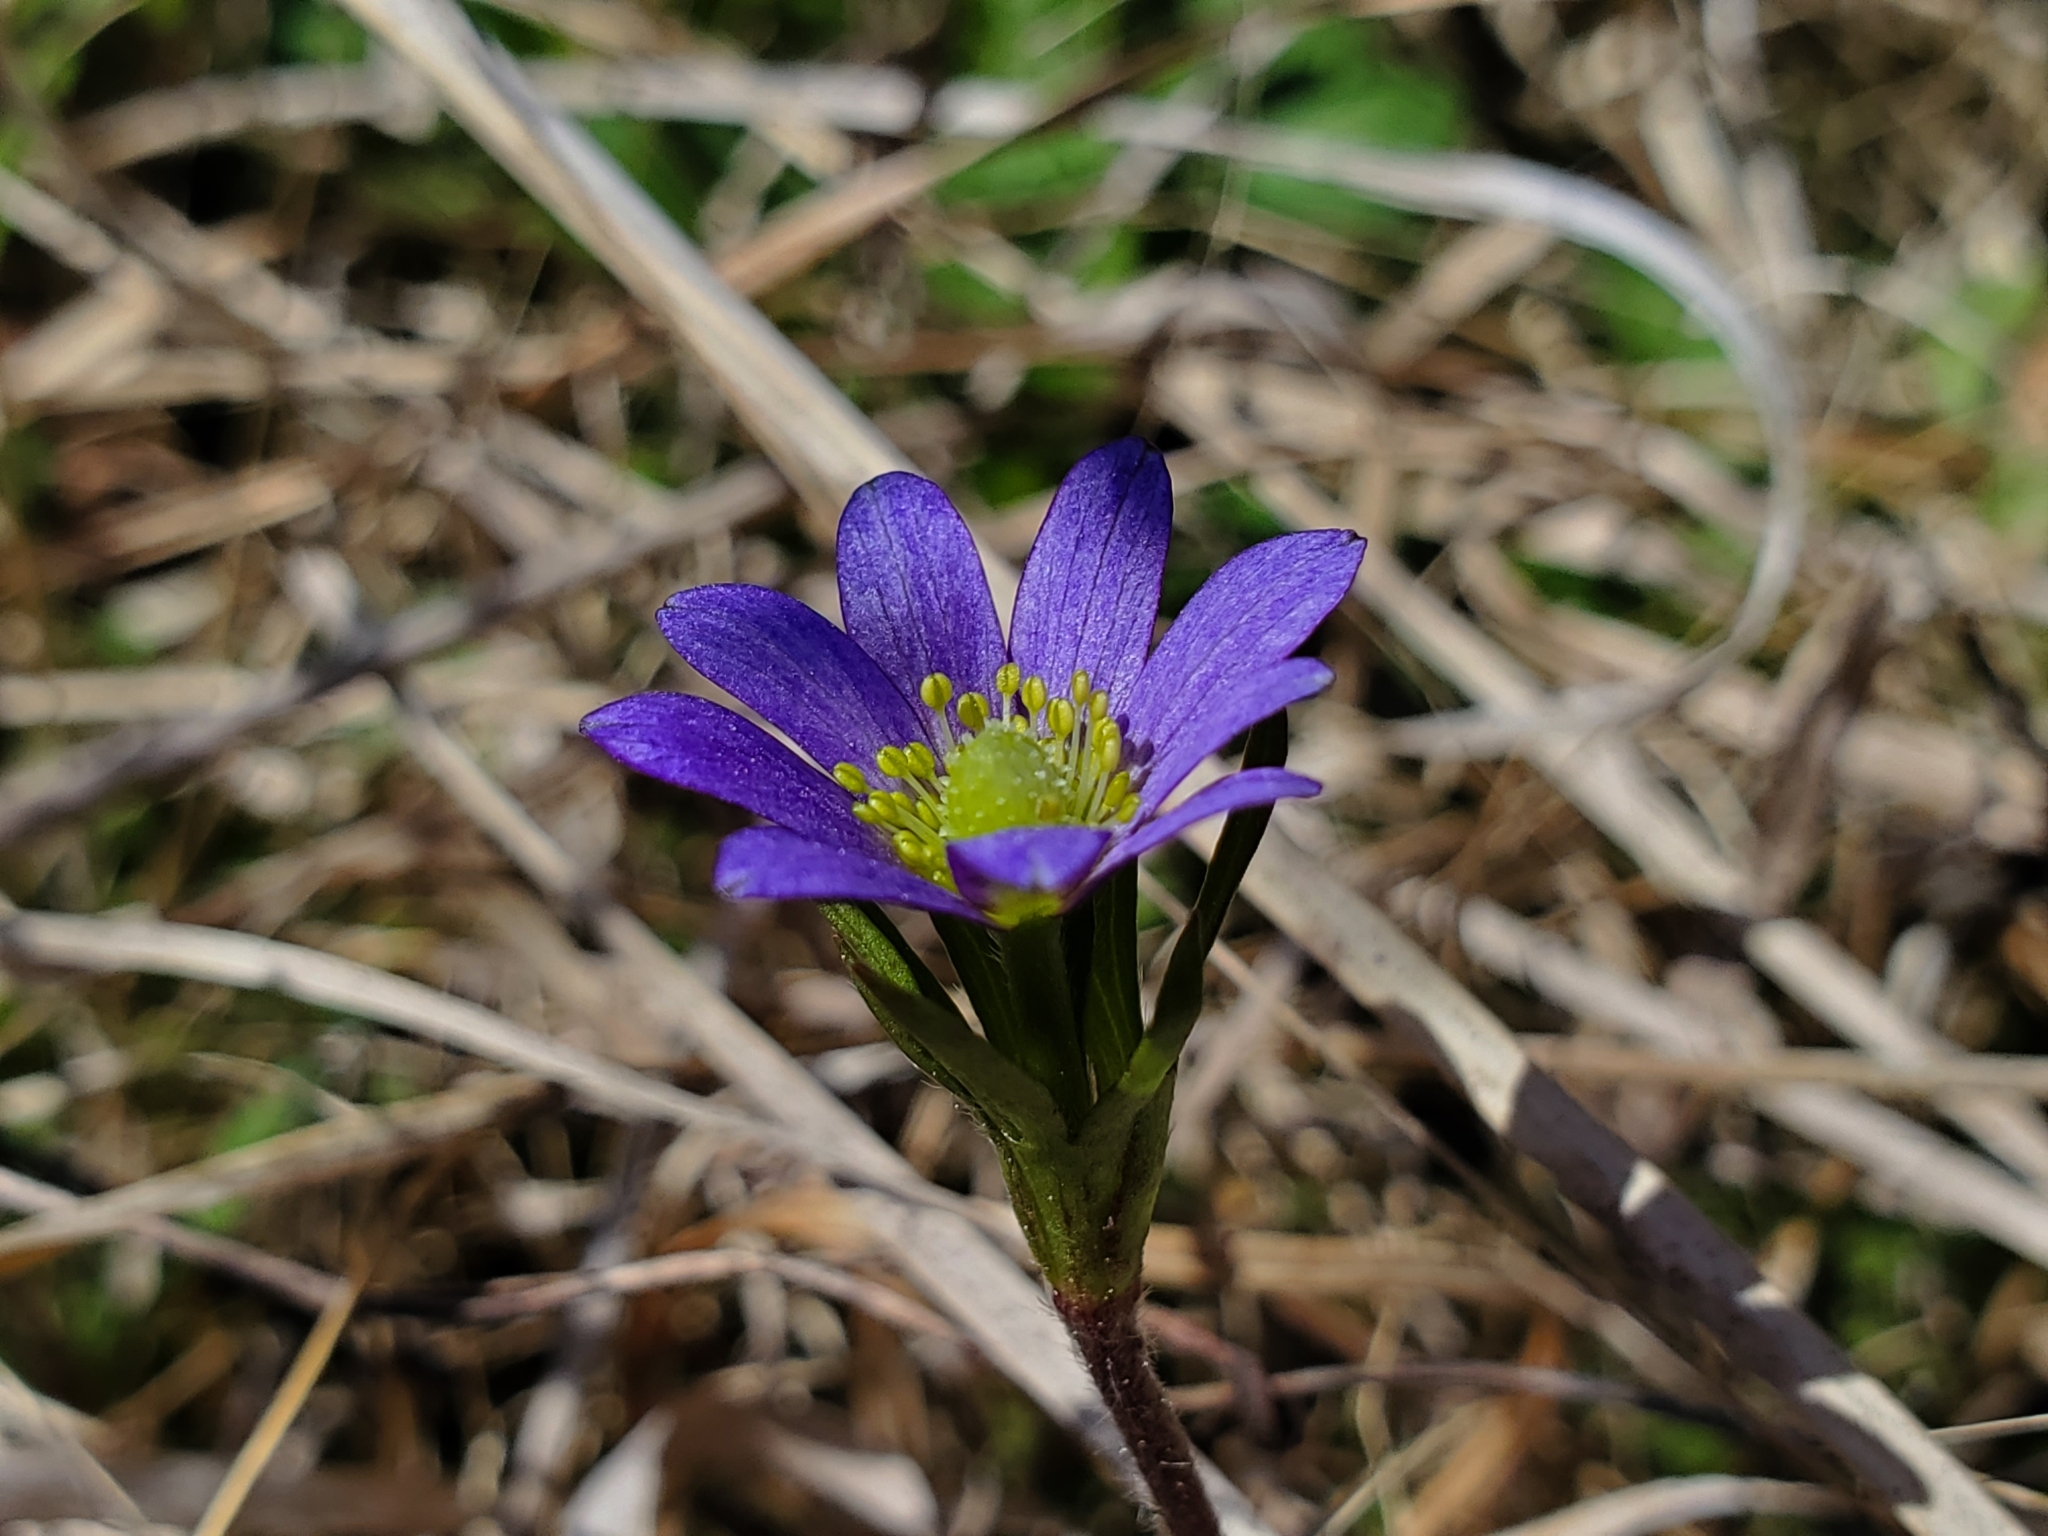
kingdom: Plantae
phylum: Tracheophyta
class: Magnoliopsida
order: Ranunculales
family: Ranunculaceae
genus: Anemone
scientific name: Anemone berlandieri
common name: Ten-petal anemone
